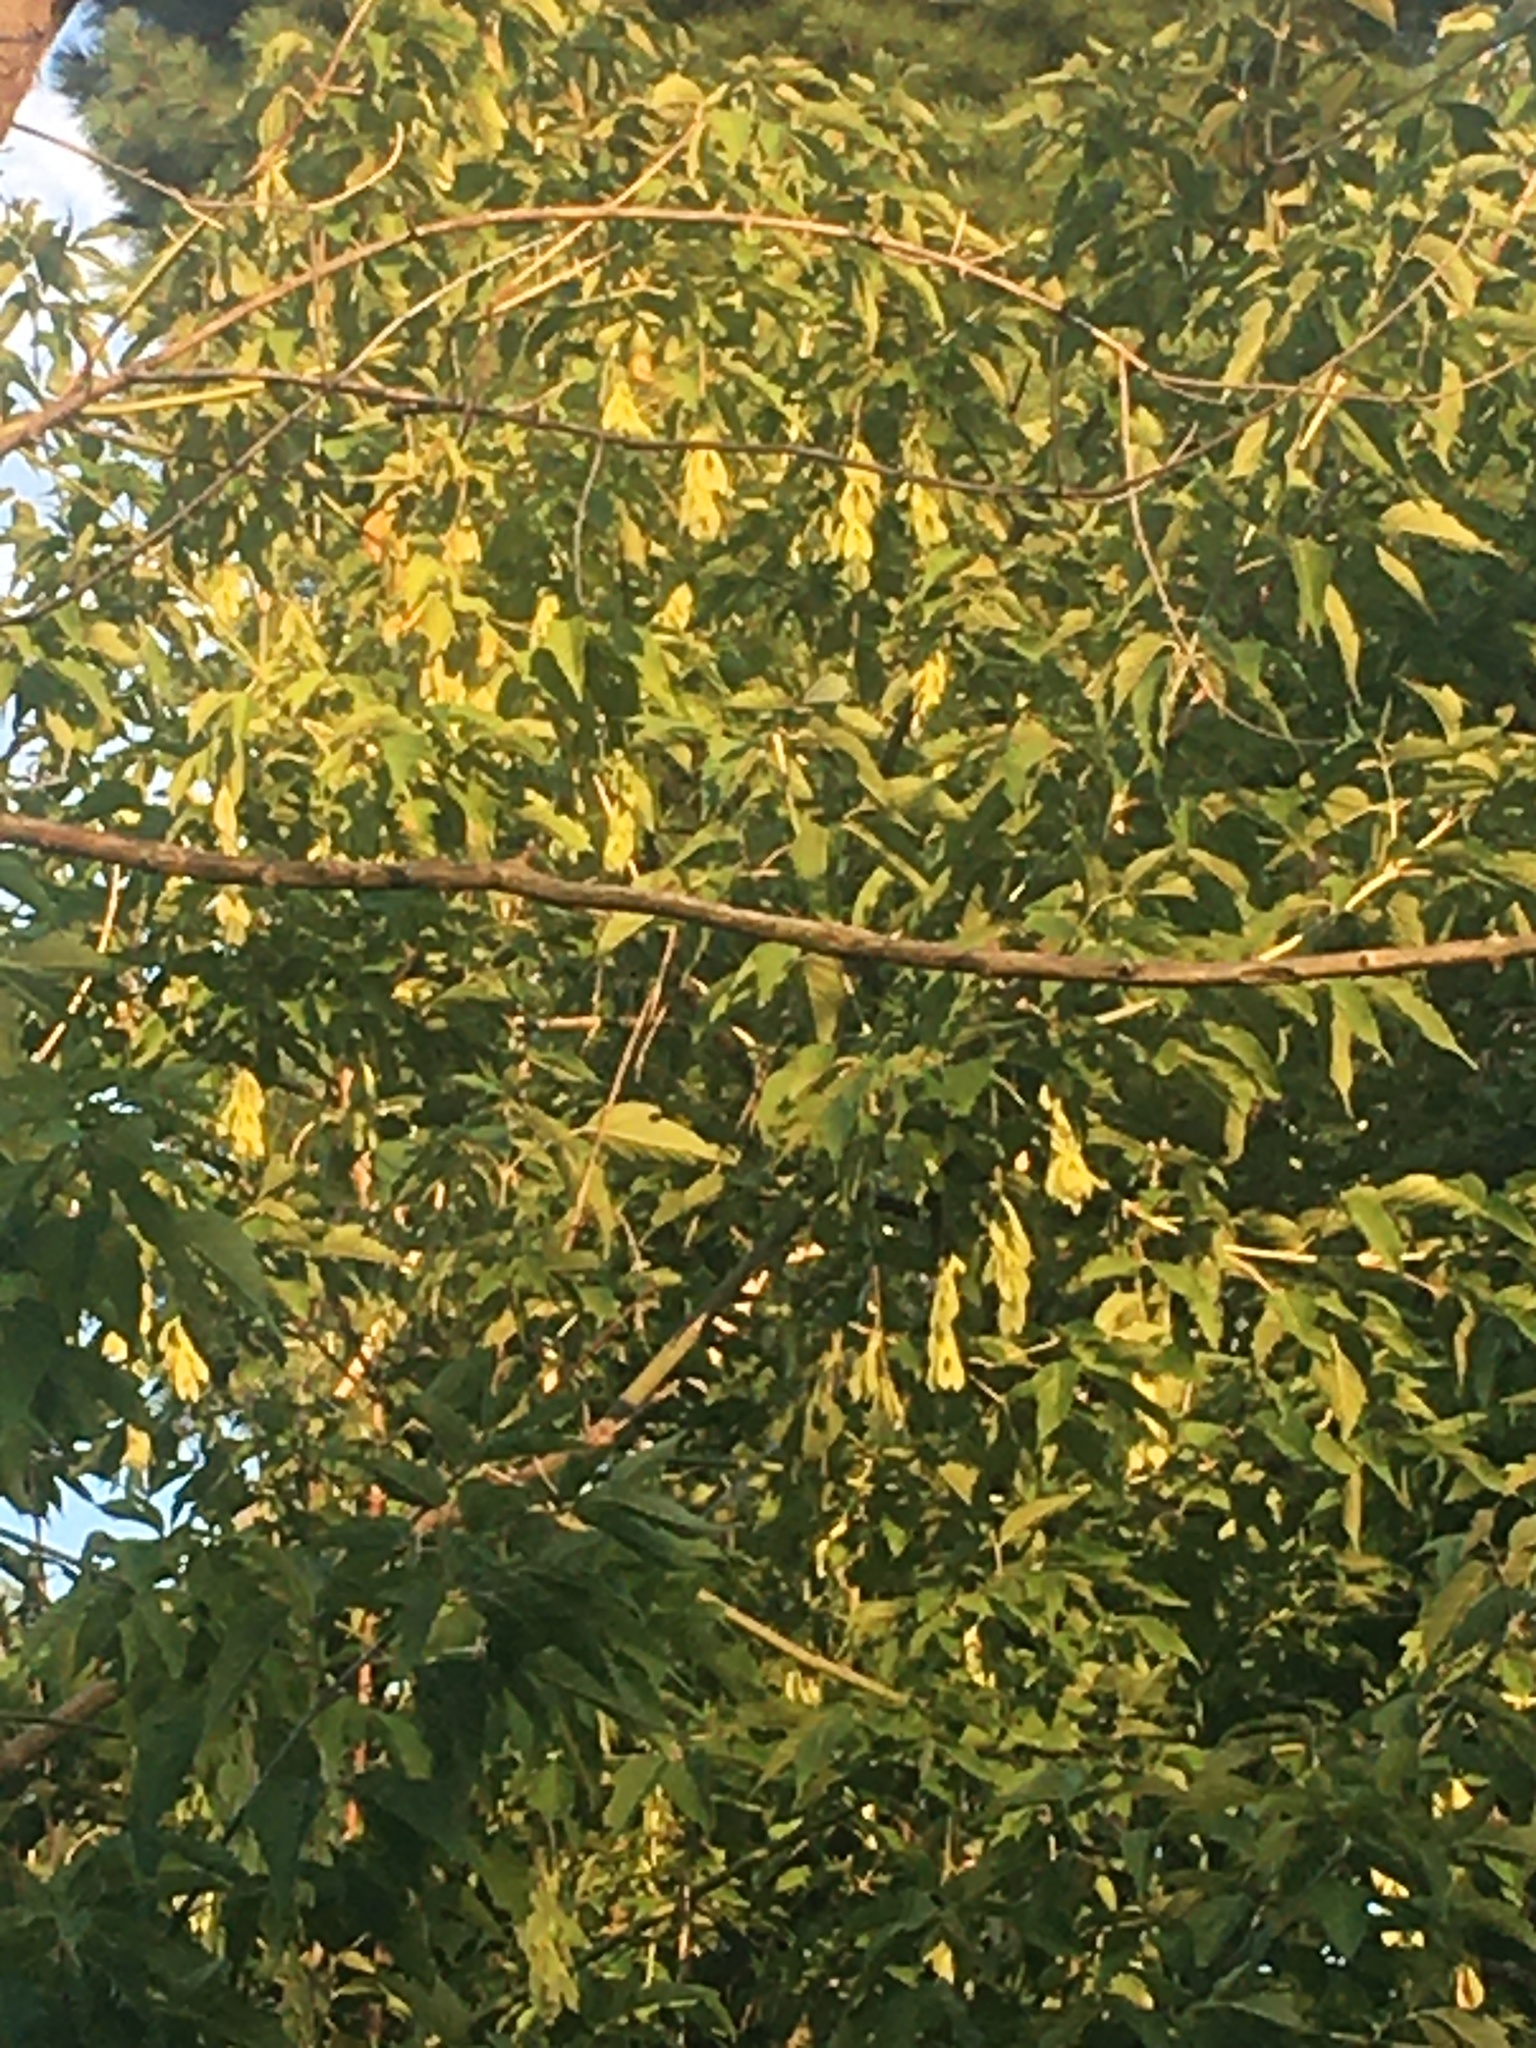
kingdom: Plantae
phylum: Tracheophyta
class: Magnoliopsida
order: Sapindales
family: Sapindaceae
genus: Acer
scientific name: Acer negundo
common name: Ashleaf maple
